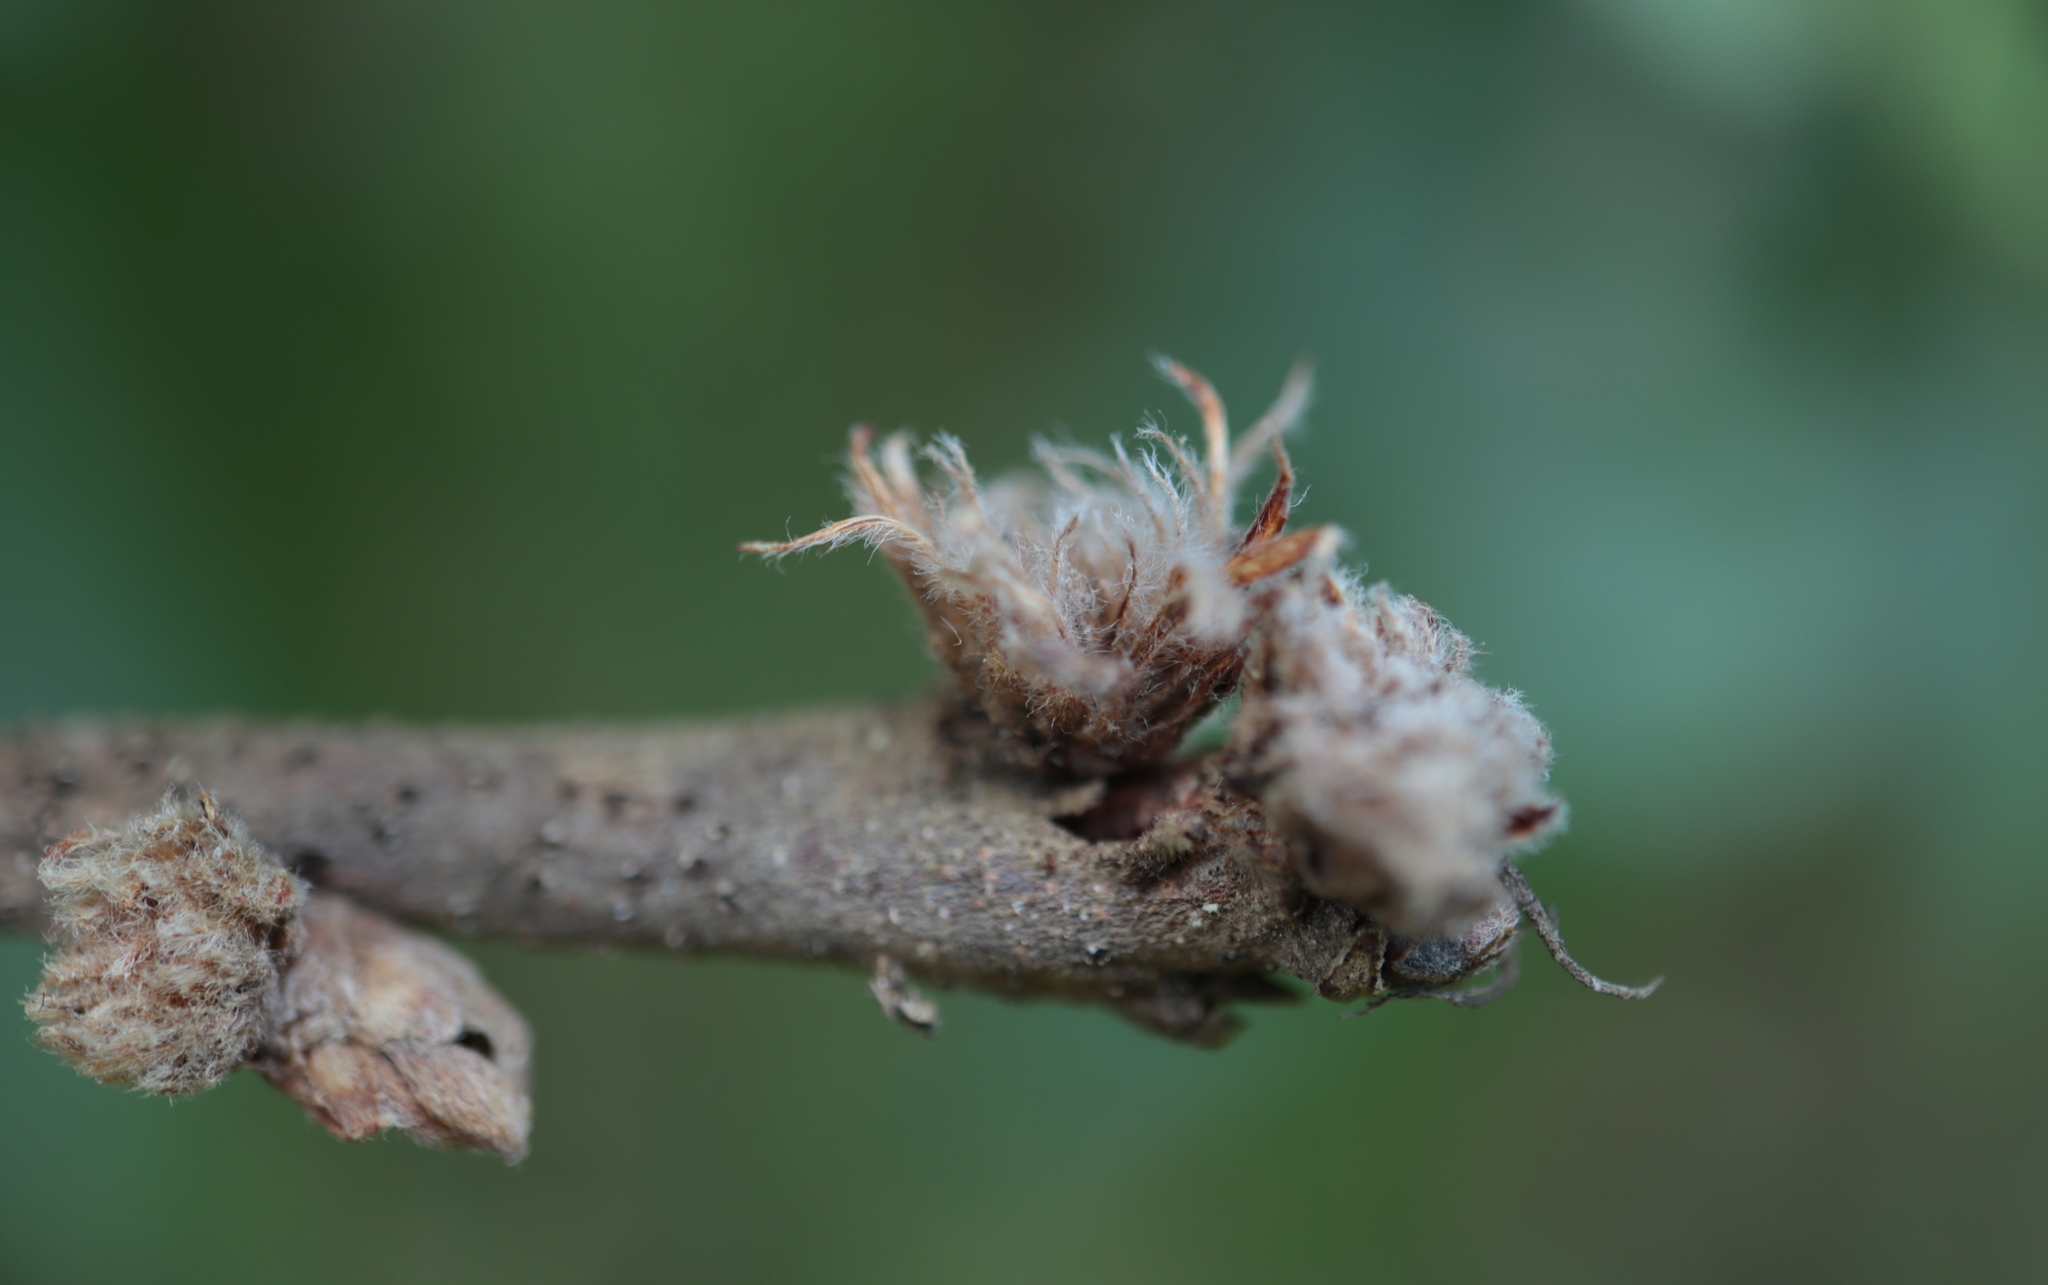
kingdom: Animalia
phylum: Arthropoda
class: Insecta
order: Hymenoptera
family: Cynipidae
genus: Andricus
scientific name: Andricus
